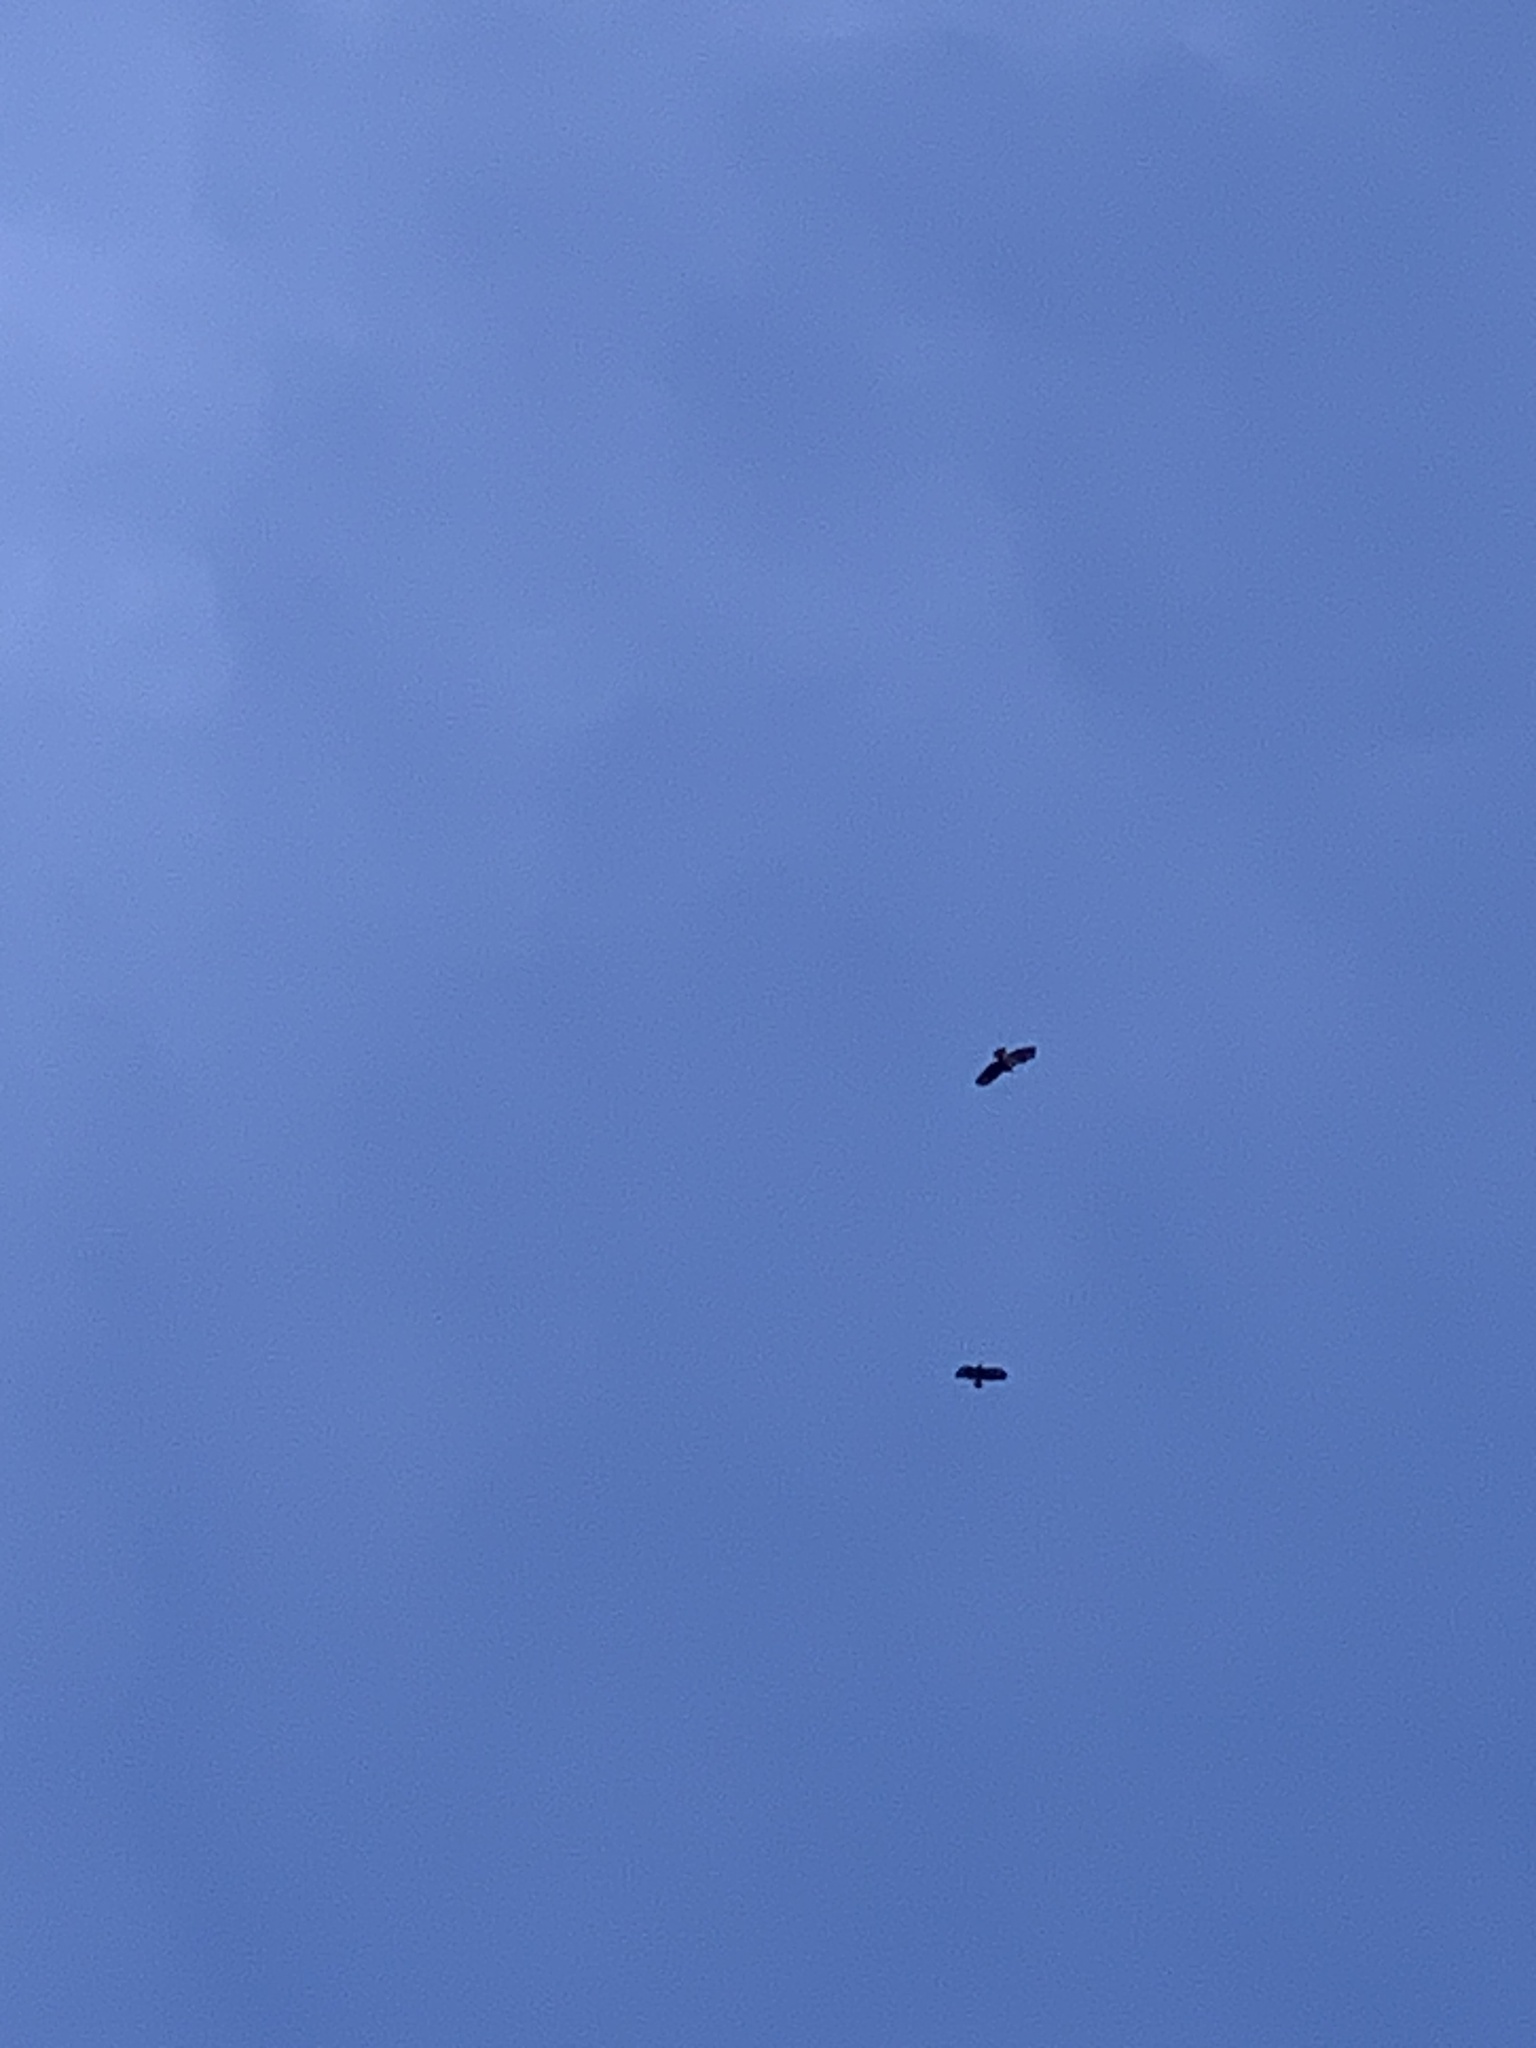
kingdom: Animalia
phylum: Chordata
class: Aves
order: Accipitriformes
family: Accipitridae
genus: Buteo
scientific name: Buteo buteo
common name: Common buzzard
